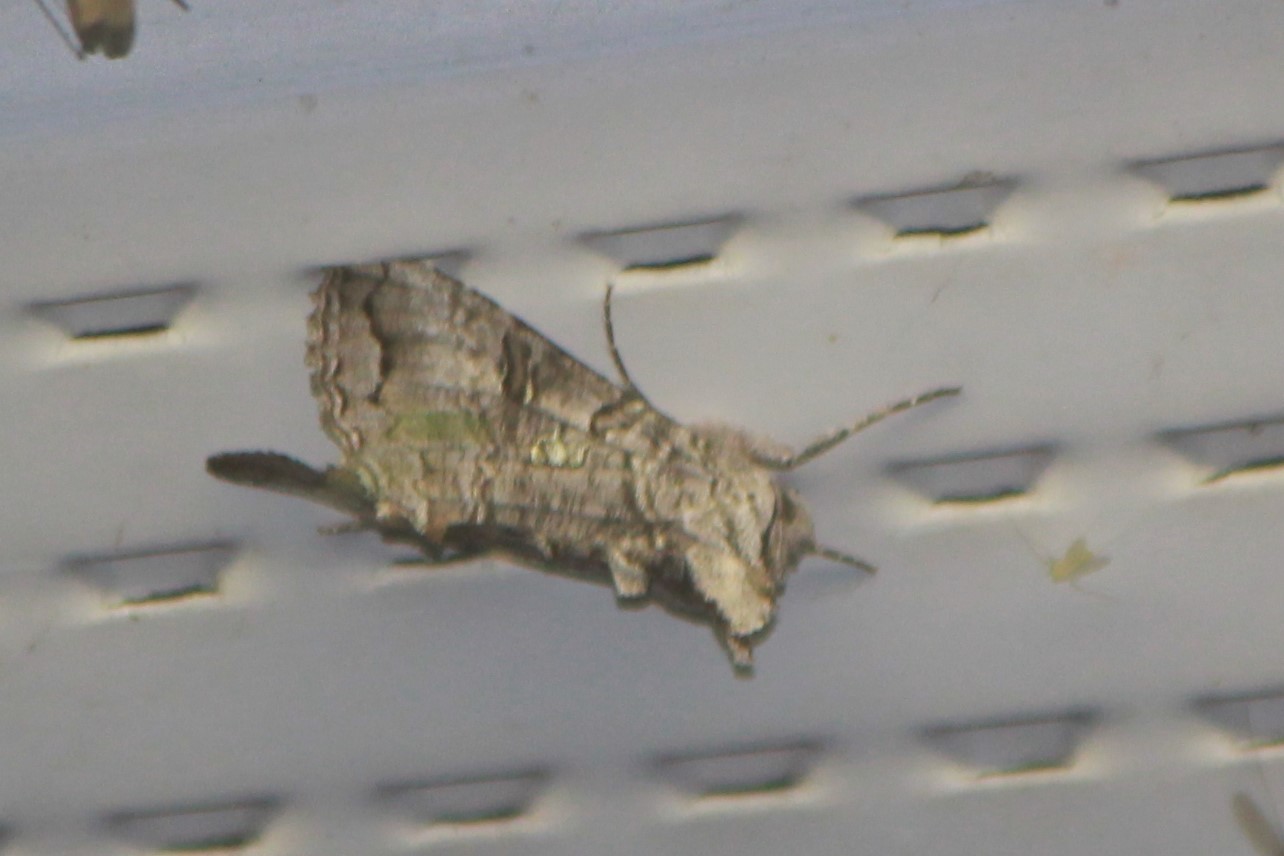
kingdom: Animalia
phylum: Arthropoda
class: Insecta
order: Lepidoptera
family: Noctuidae
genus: Syngrapha
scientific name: Syngrapha viridisigma
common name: Spruce false looper moth
